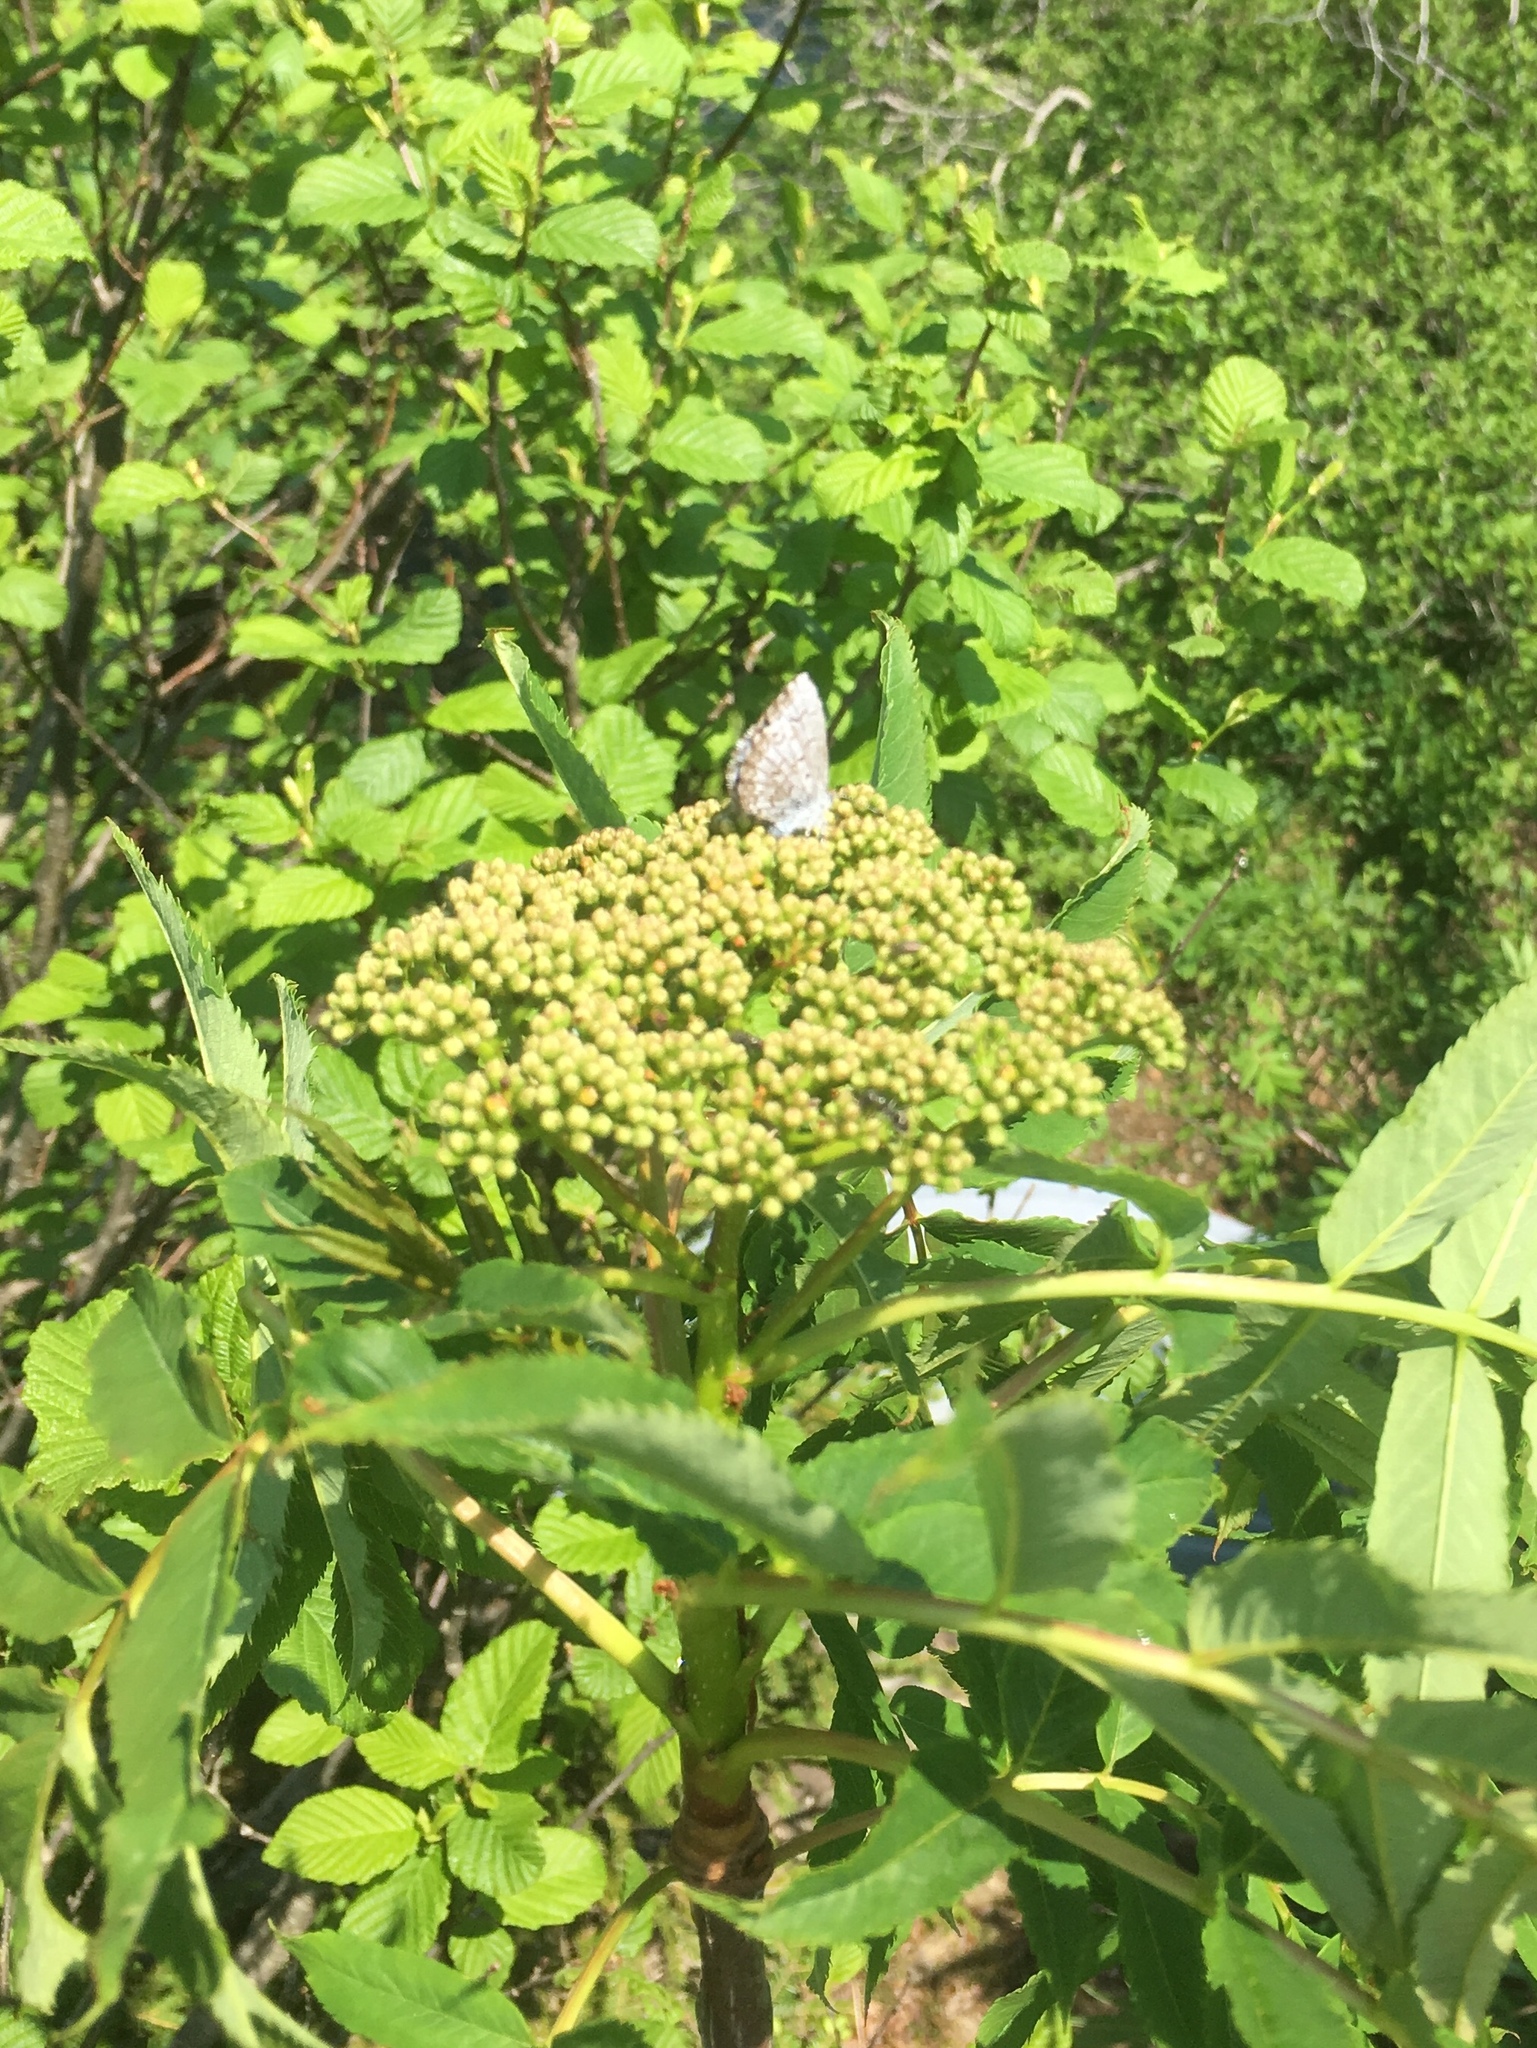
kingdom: Animalia
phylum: Arthropoda
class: Insecta
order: Lepidoptera
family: Lycaenidae
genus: Celastrina
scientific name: Celastrina lucia
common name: Lucia azure
